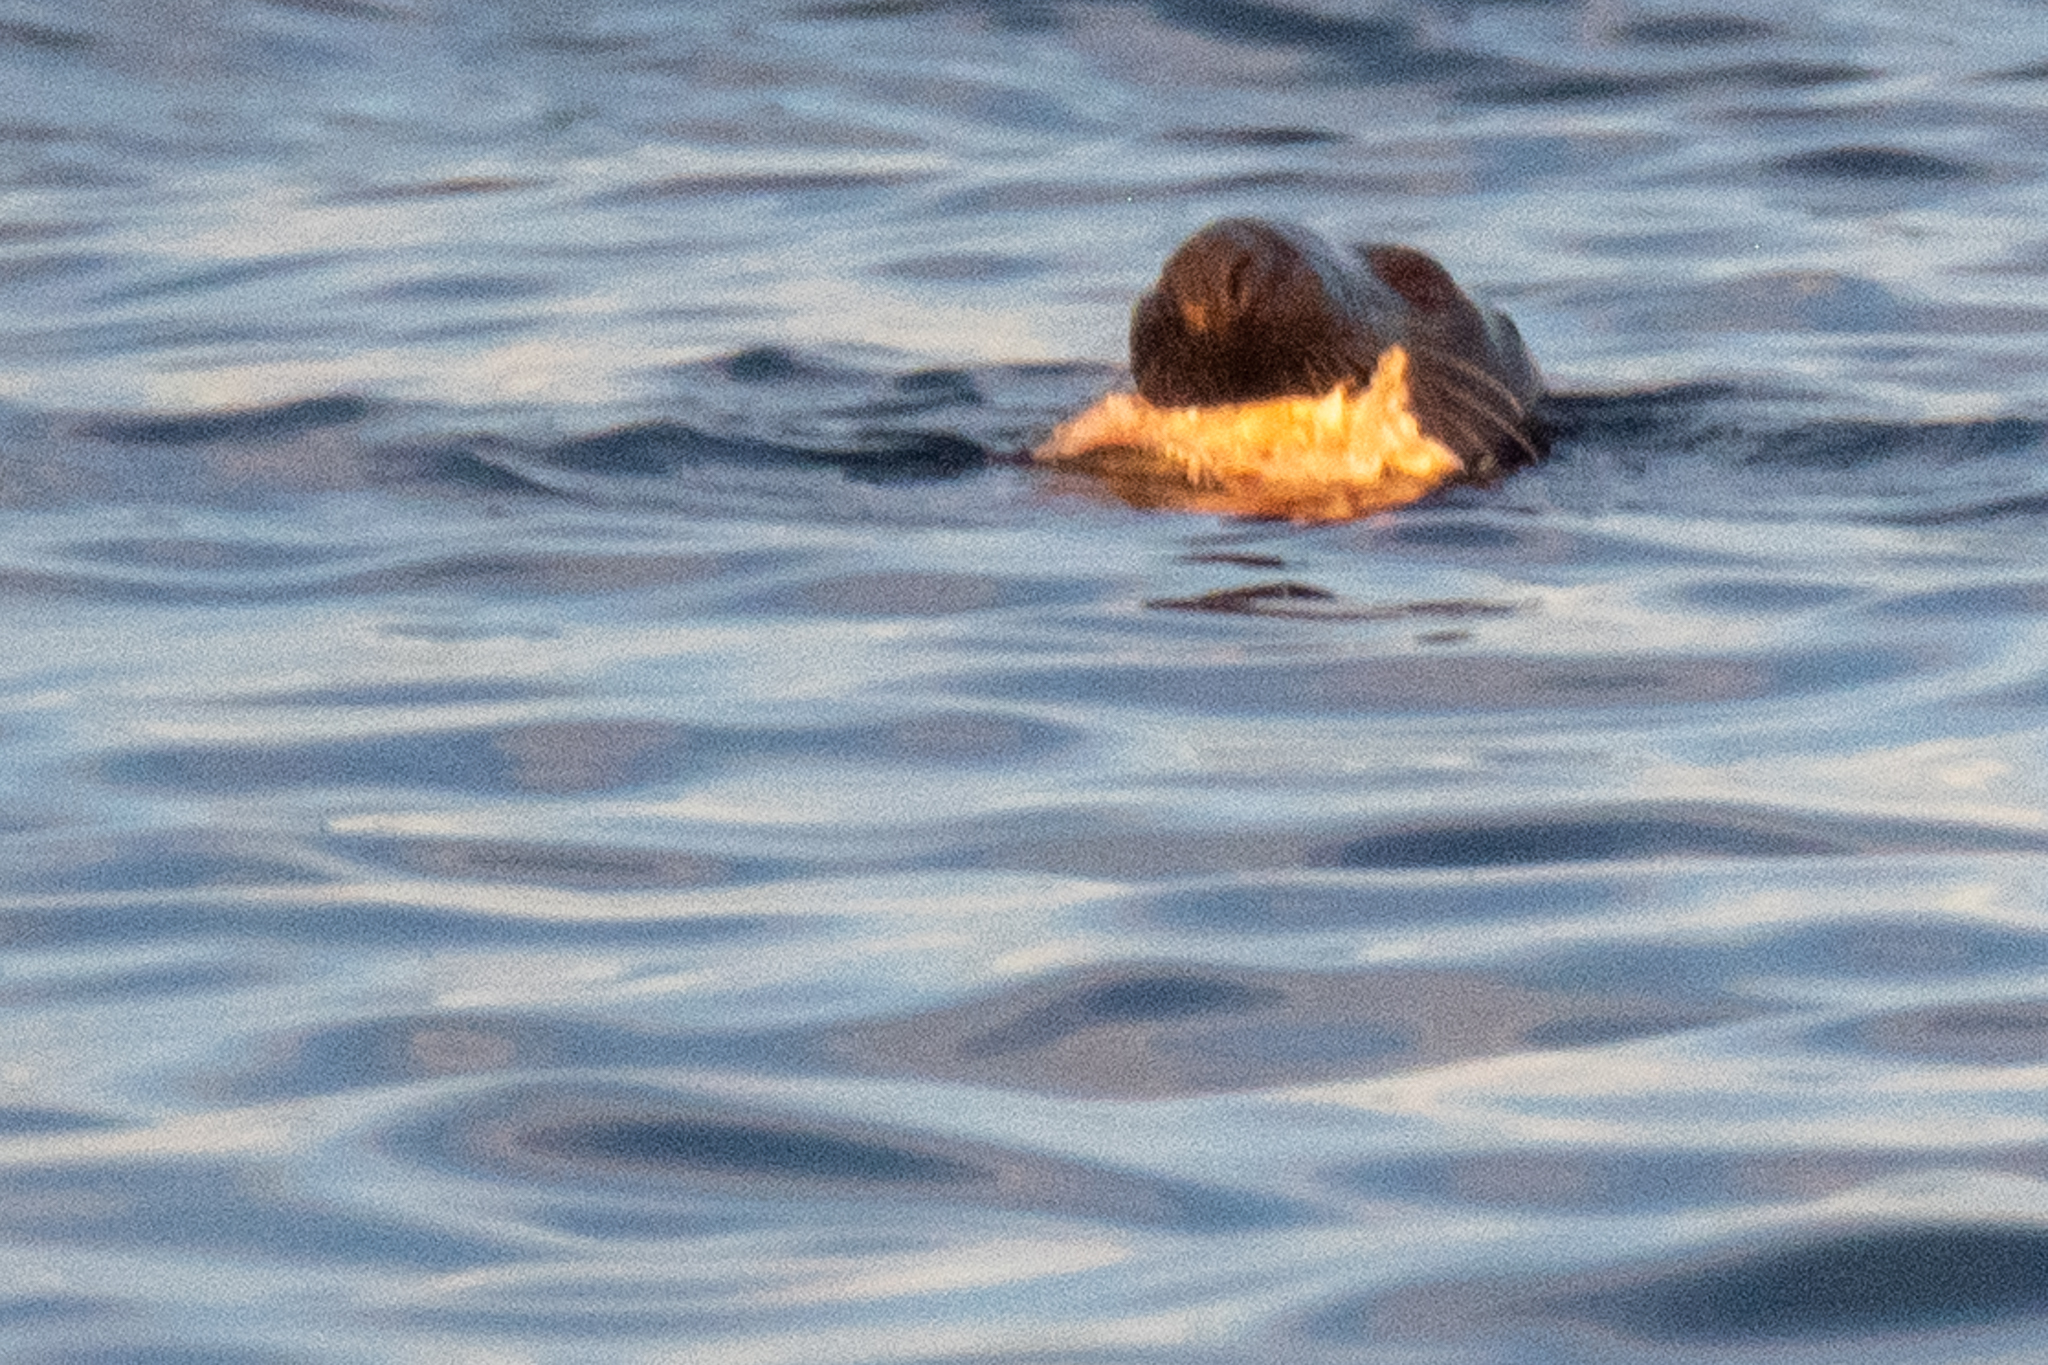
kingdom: Animalia
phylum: Chordata
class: Mammalia
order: Carnivora
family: Phocidae
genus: Halichoerus
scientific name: Halichoerus grypus
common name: Grey seal
